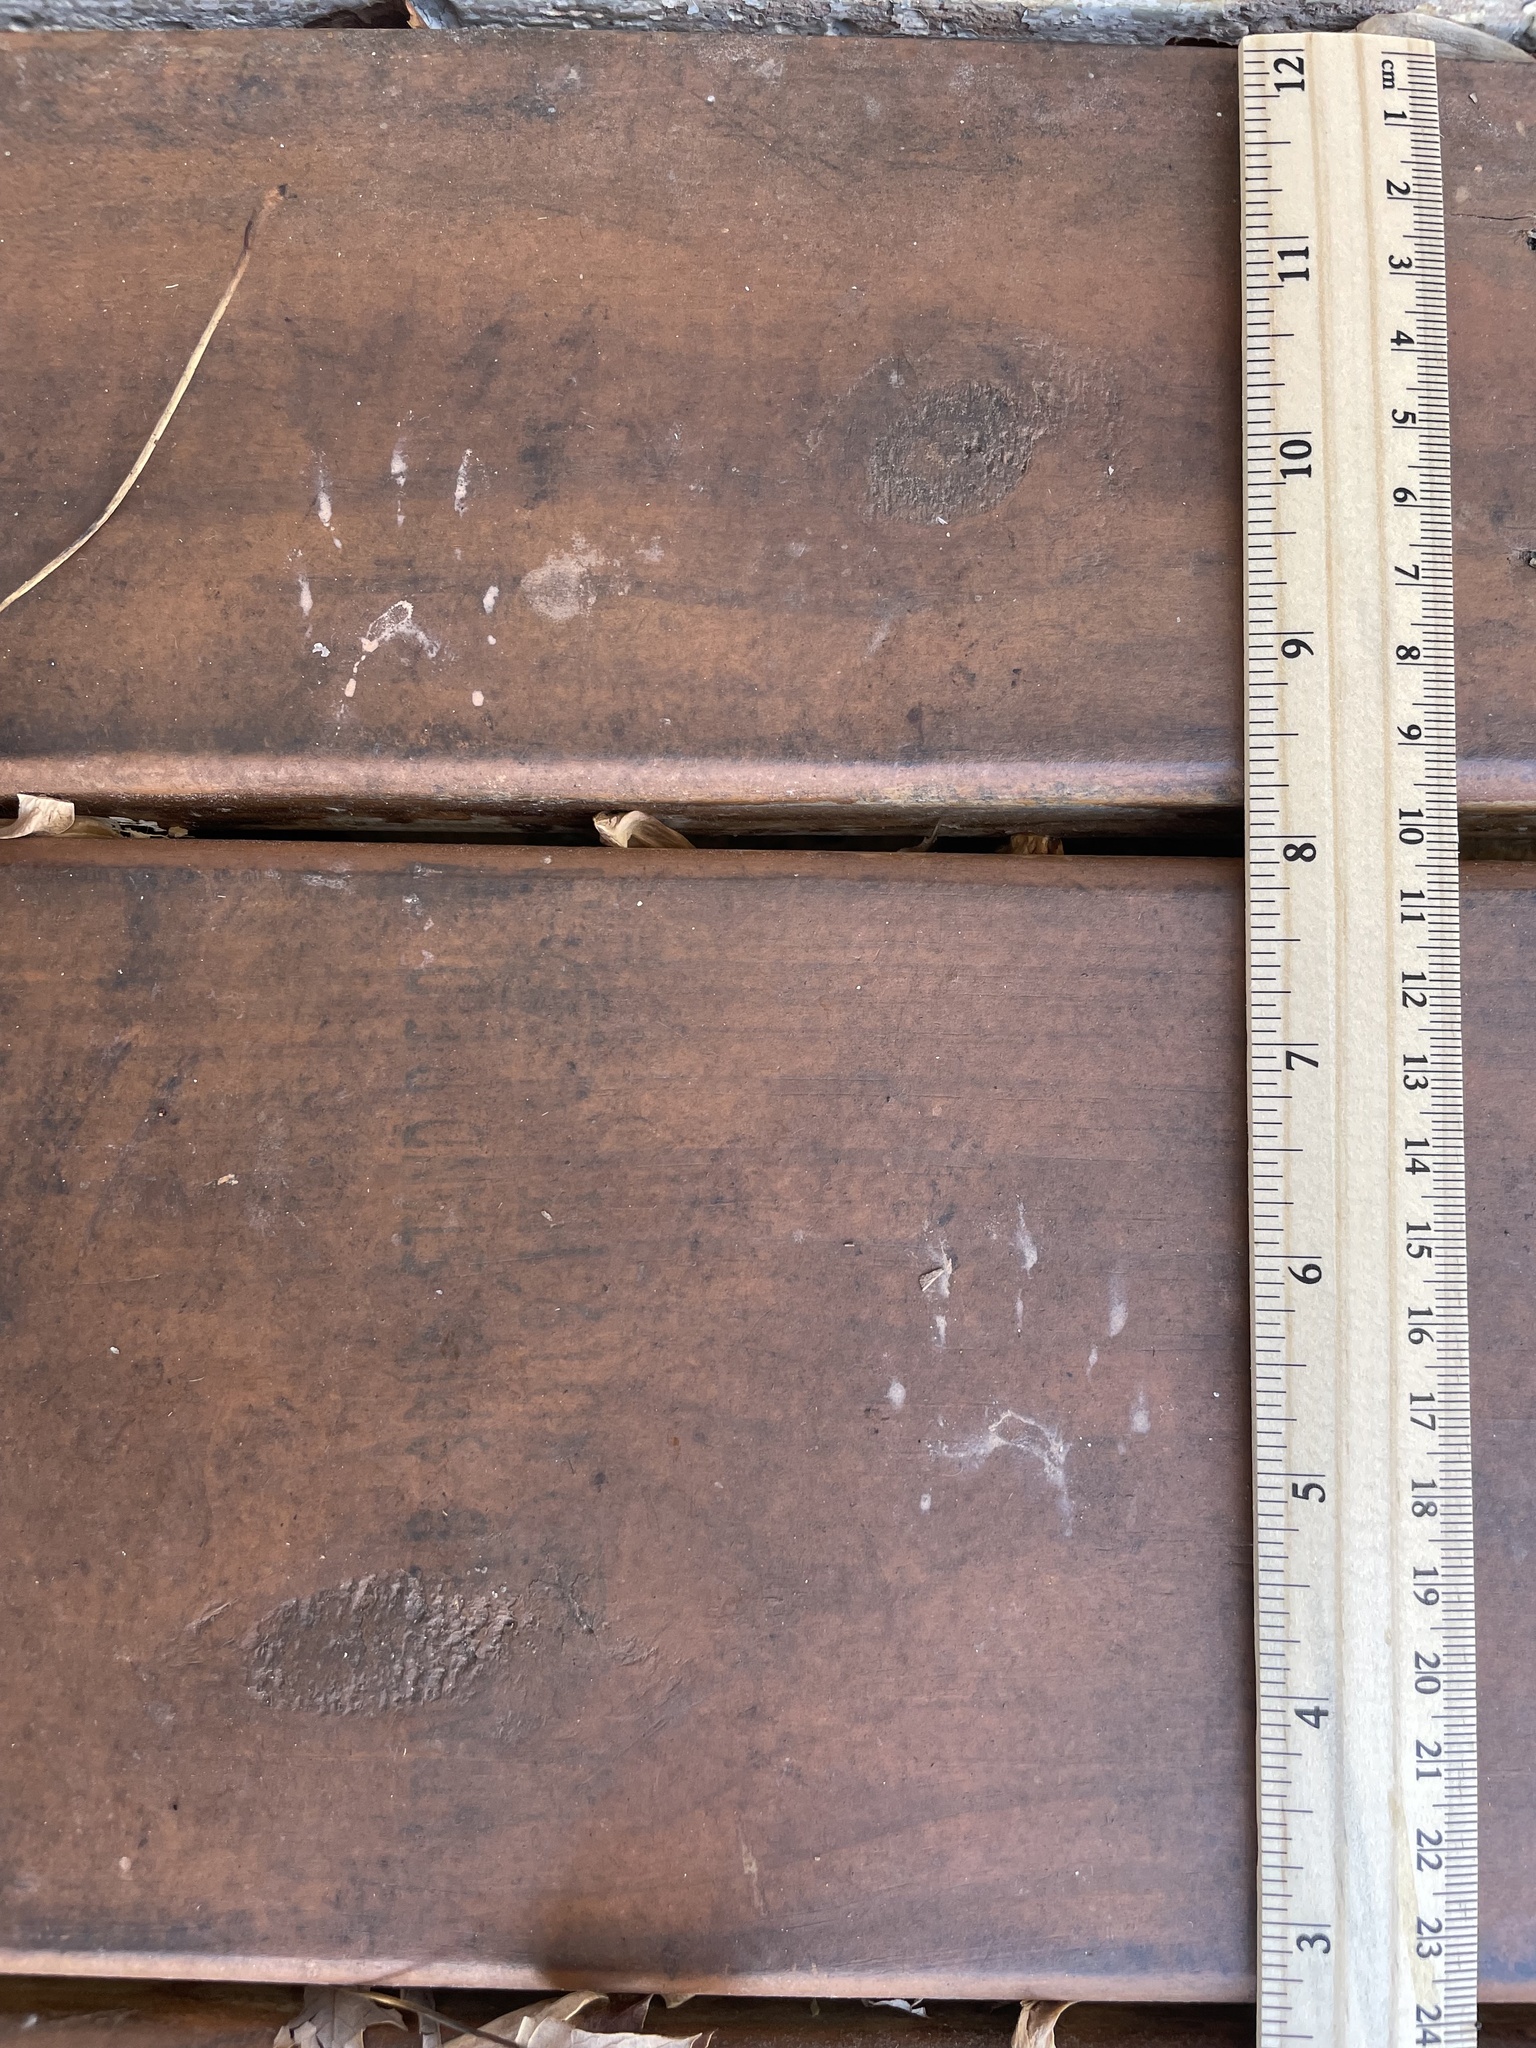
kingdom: Animalia
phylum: Chordata
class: Mammalia
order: Carnivora
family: Procyonidae
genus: Procyon
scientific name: Procyon lotor
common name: Raccoon
